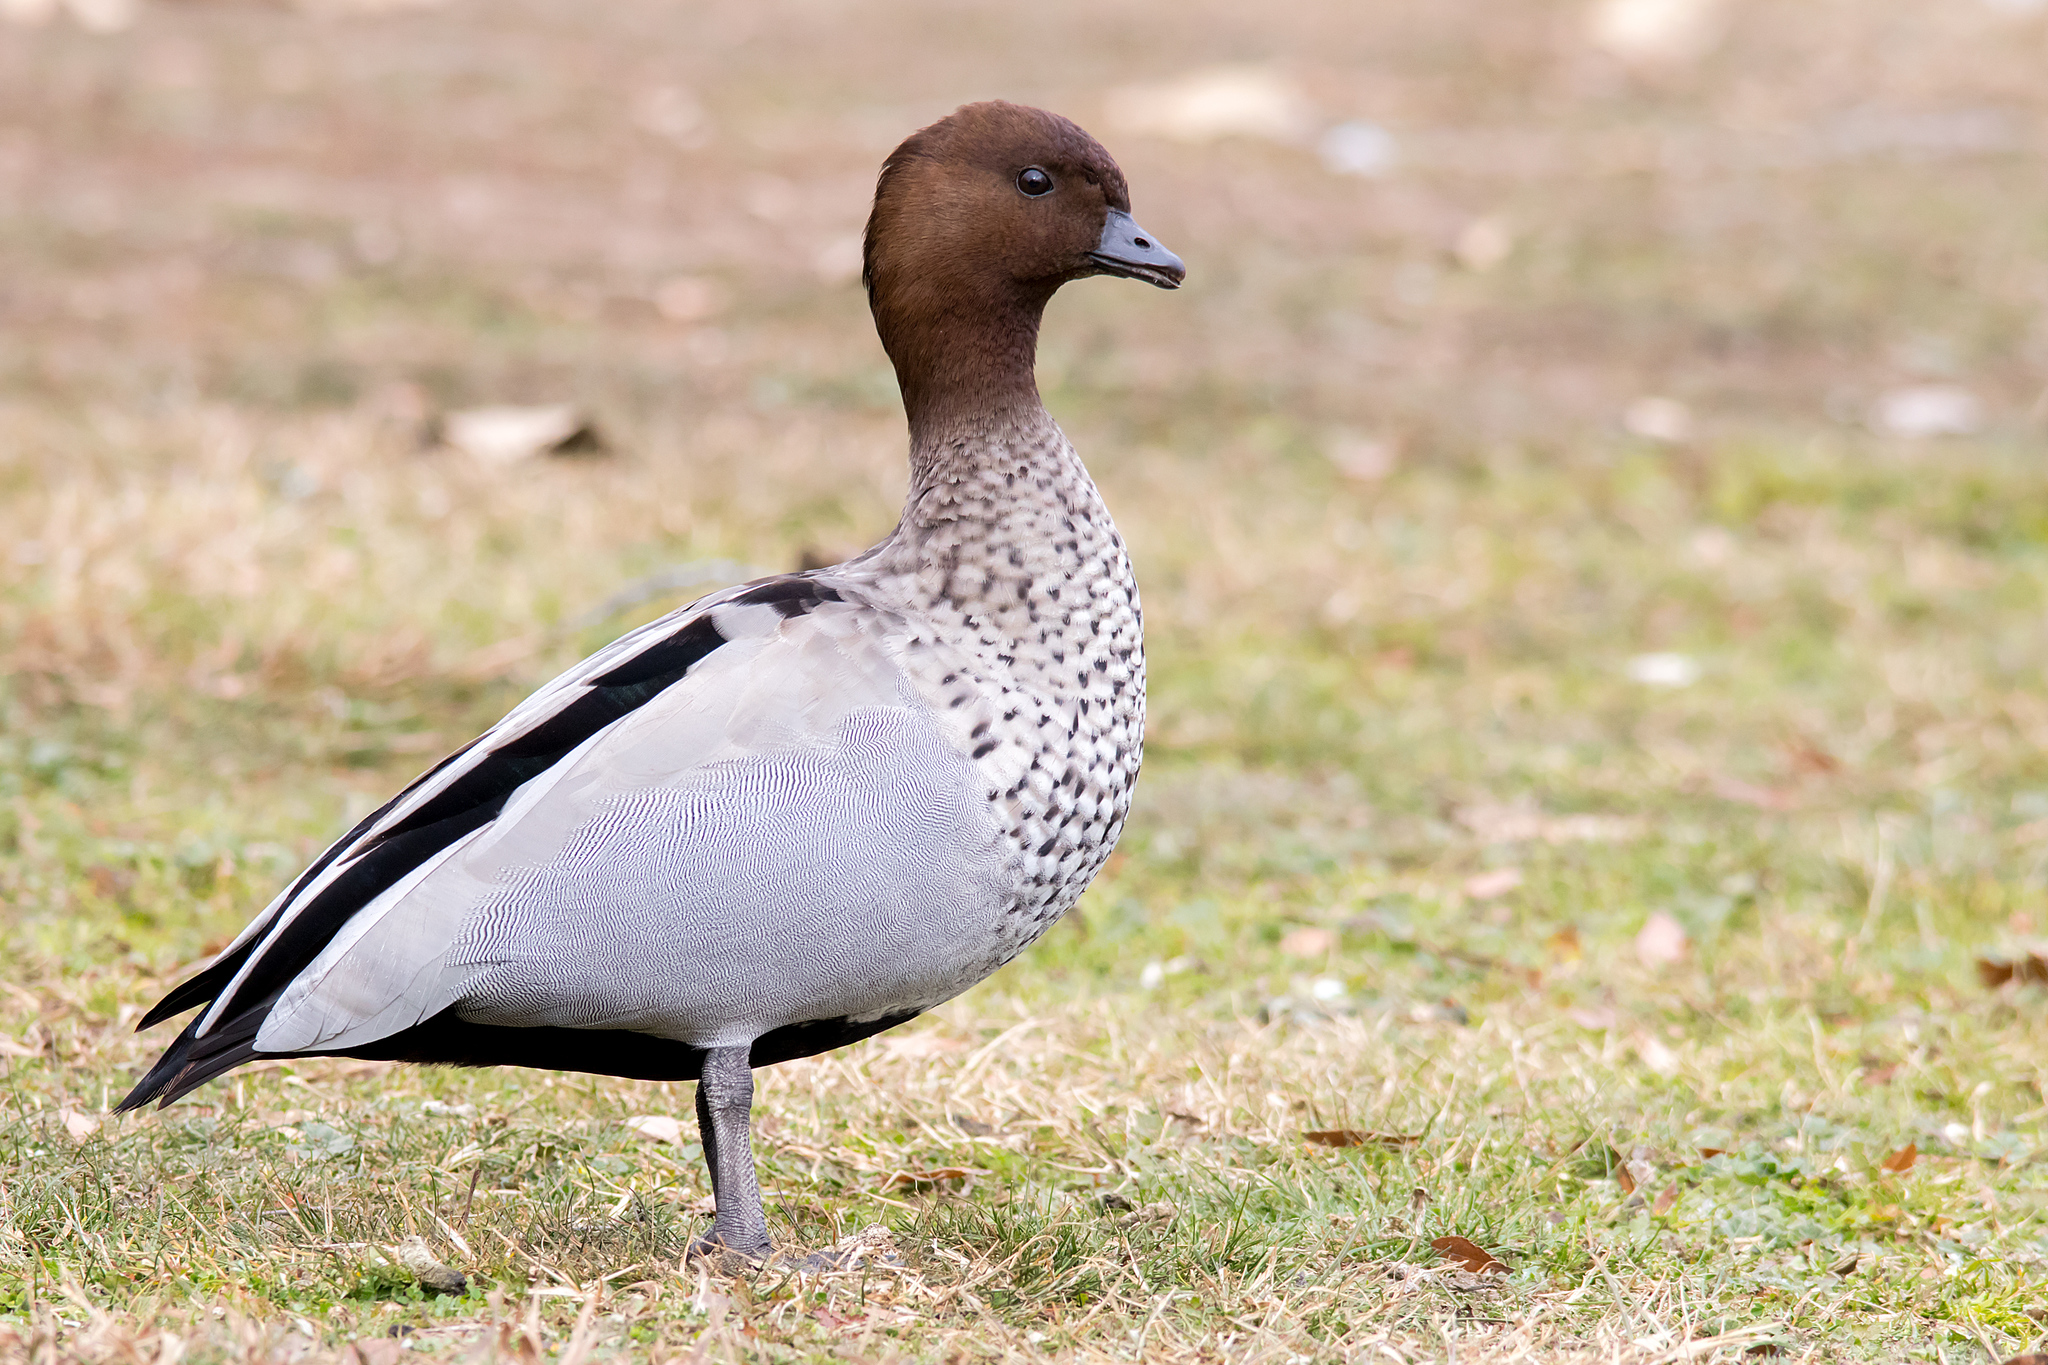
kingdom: Animalia
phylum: Chordata
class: Aves
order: Anseriformes
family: Anatidae
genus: Chenonetta
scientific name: Chenonetta jubata
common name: Maned duck
